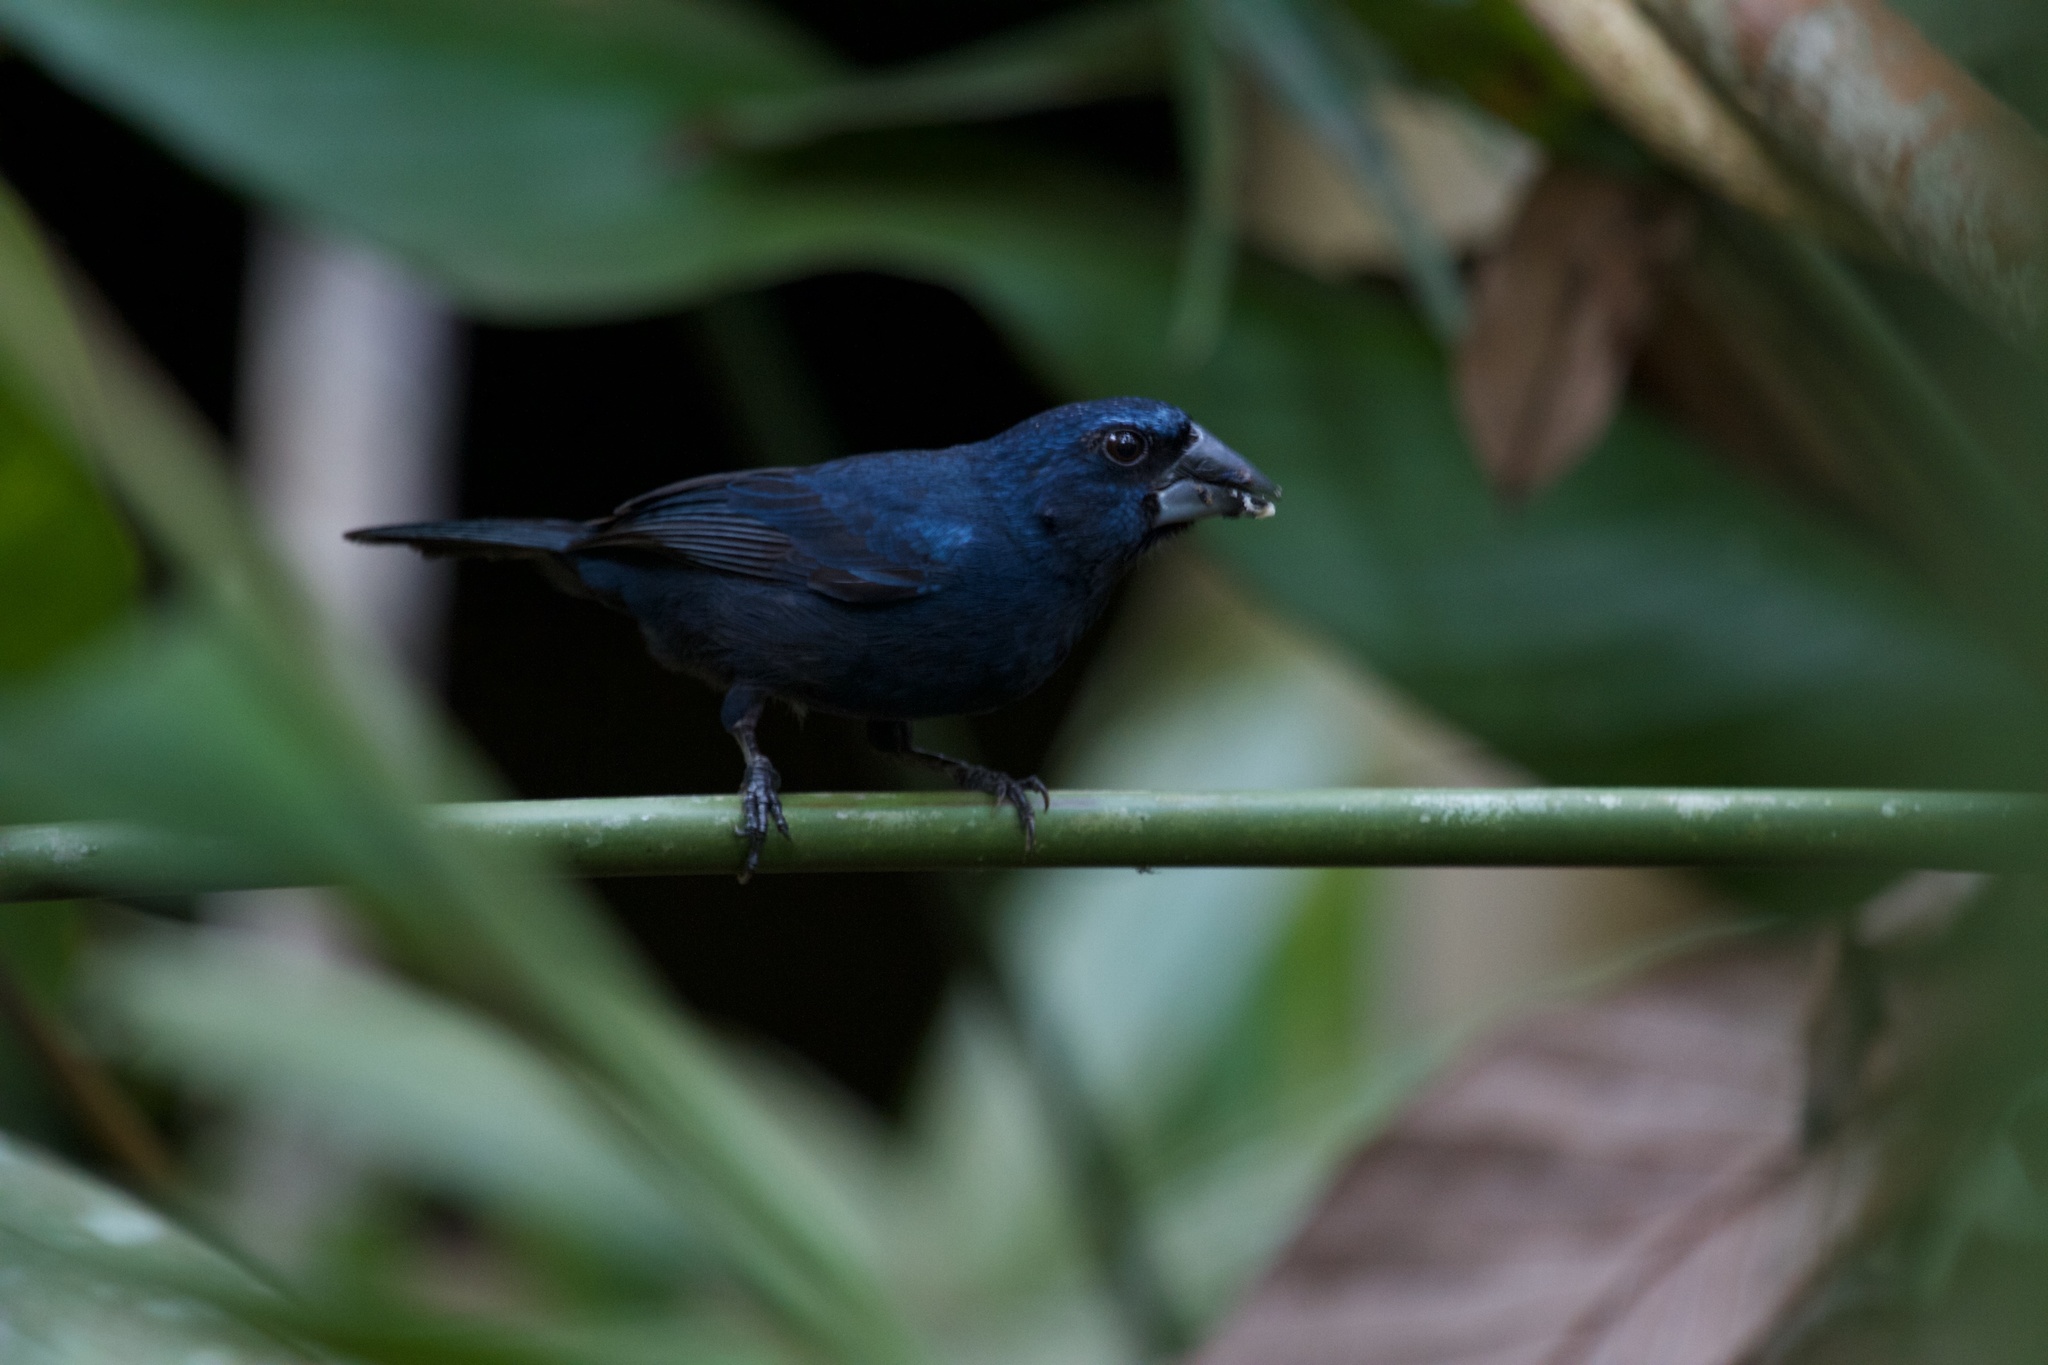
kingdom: Animalia
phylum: Chordata
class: Aves
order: Passeriformes
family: Cardinalidae
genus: Cyanocompsa
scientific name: Cyanocompsa cyanoides
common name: Blue-black grosbeak
